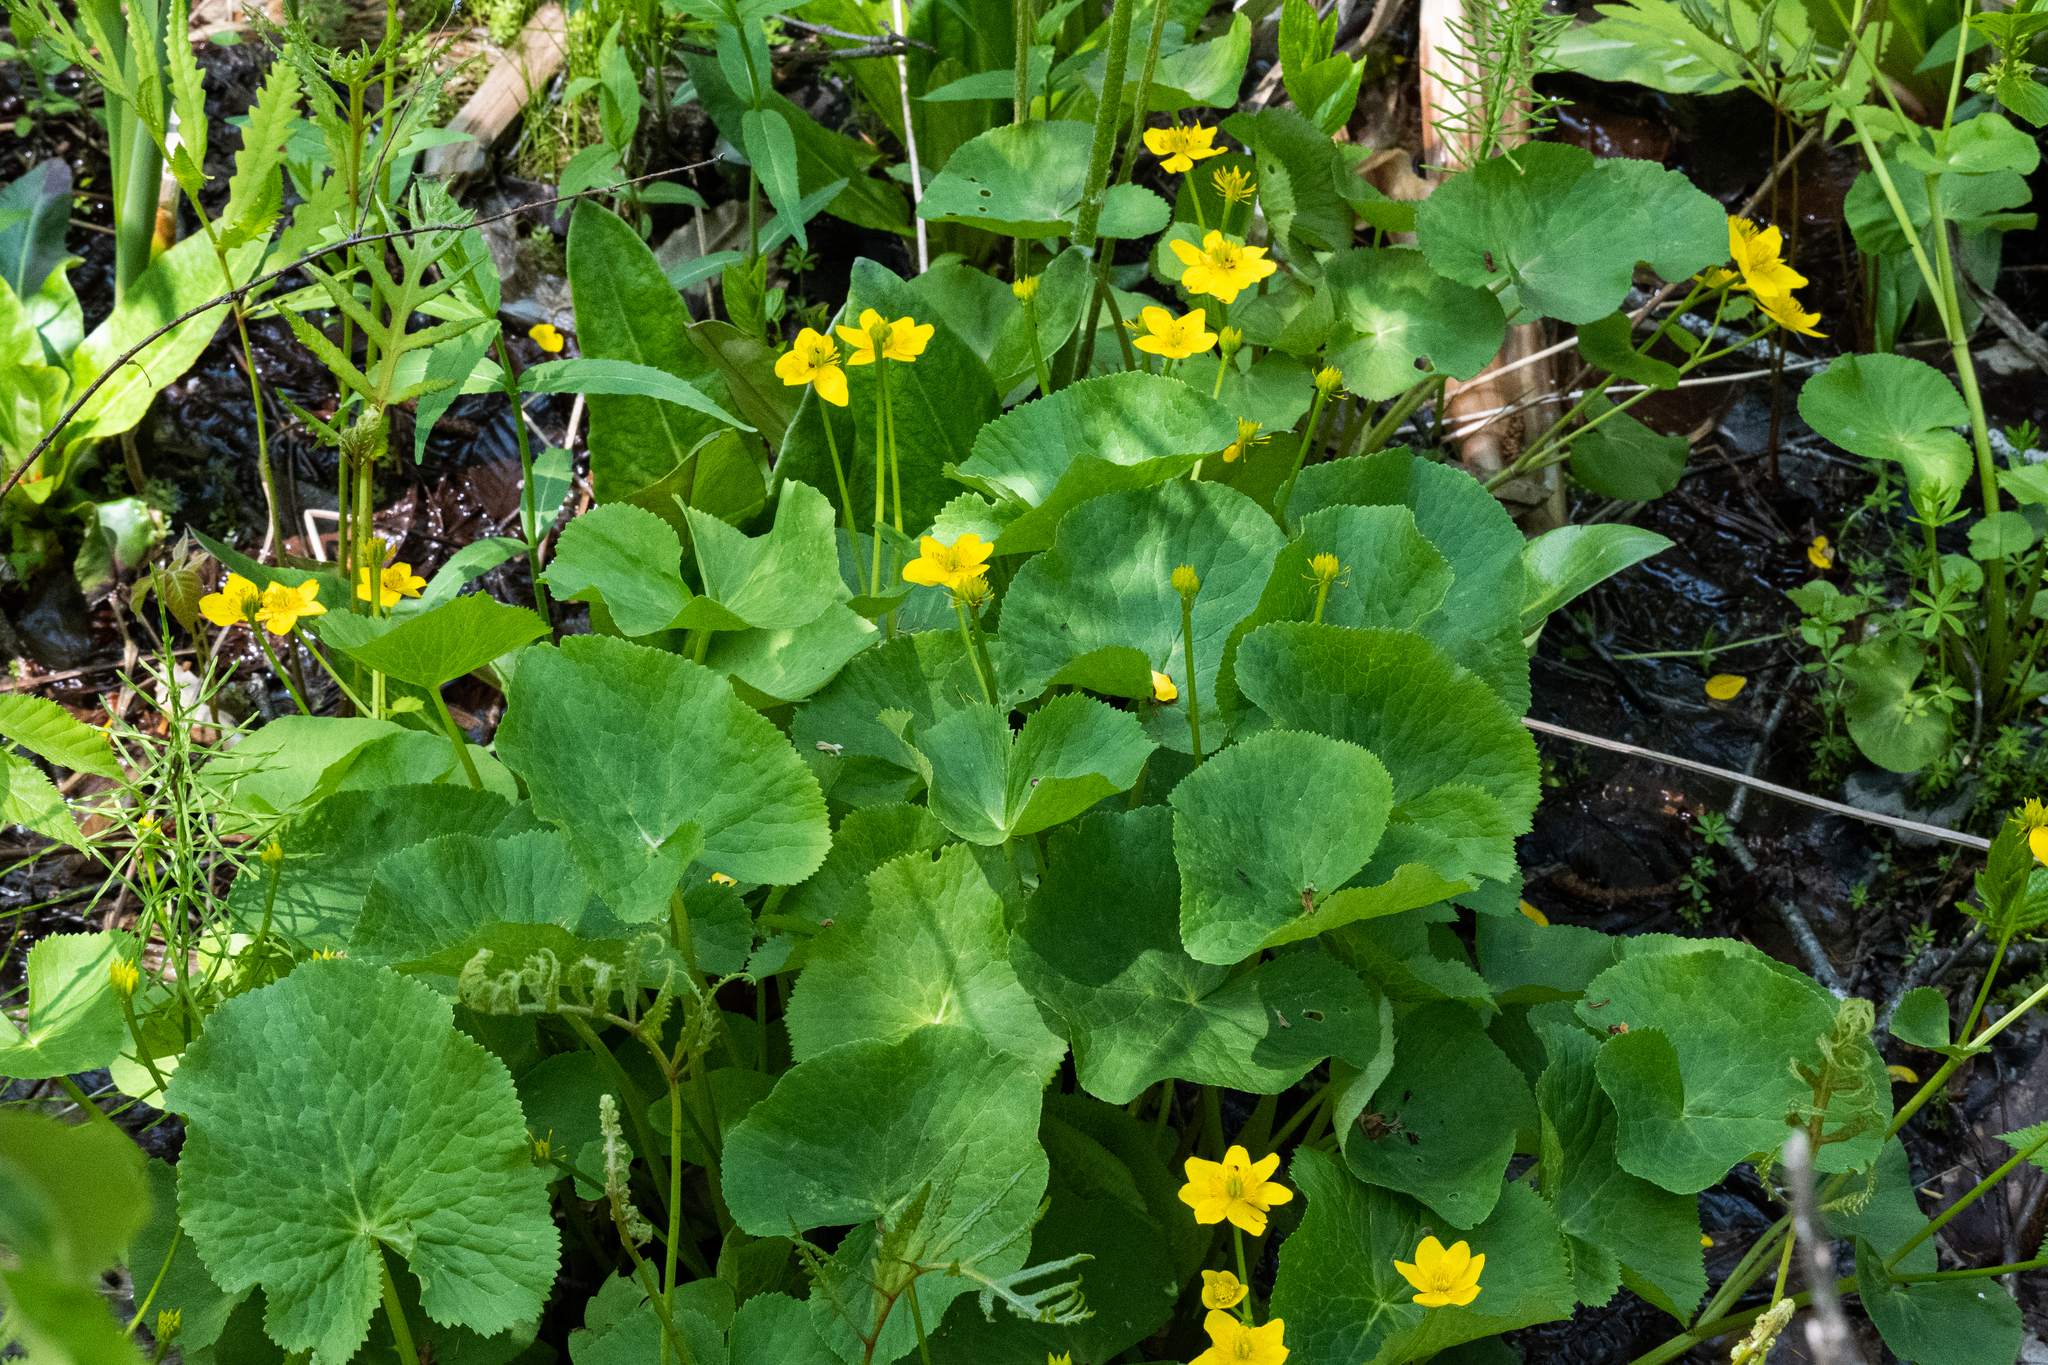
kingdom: Plantae
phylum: Tracheophyta
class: Magnoliopsida
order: Ranunculales
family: Ranunculaceae
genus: Caltha
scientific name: Caltha palustris
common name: Marsh marigold
